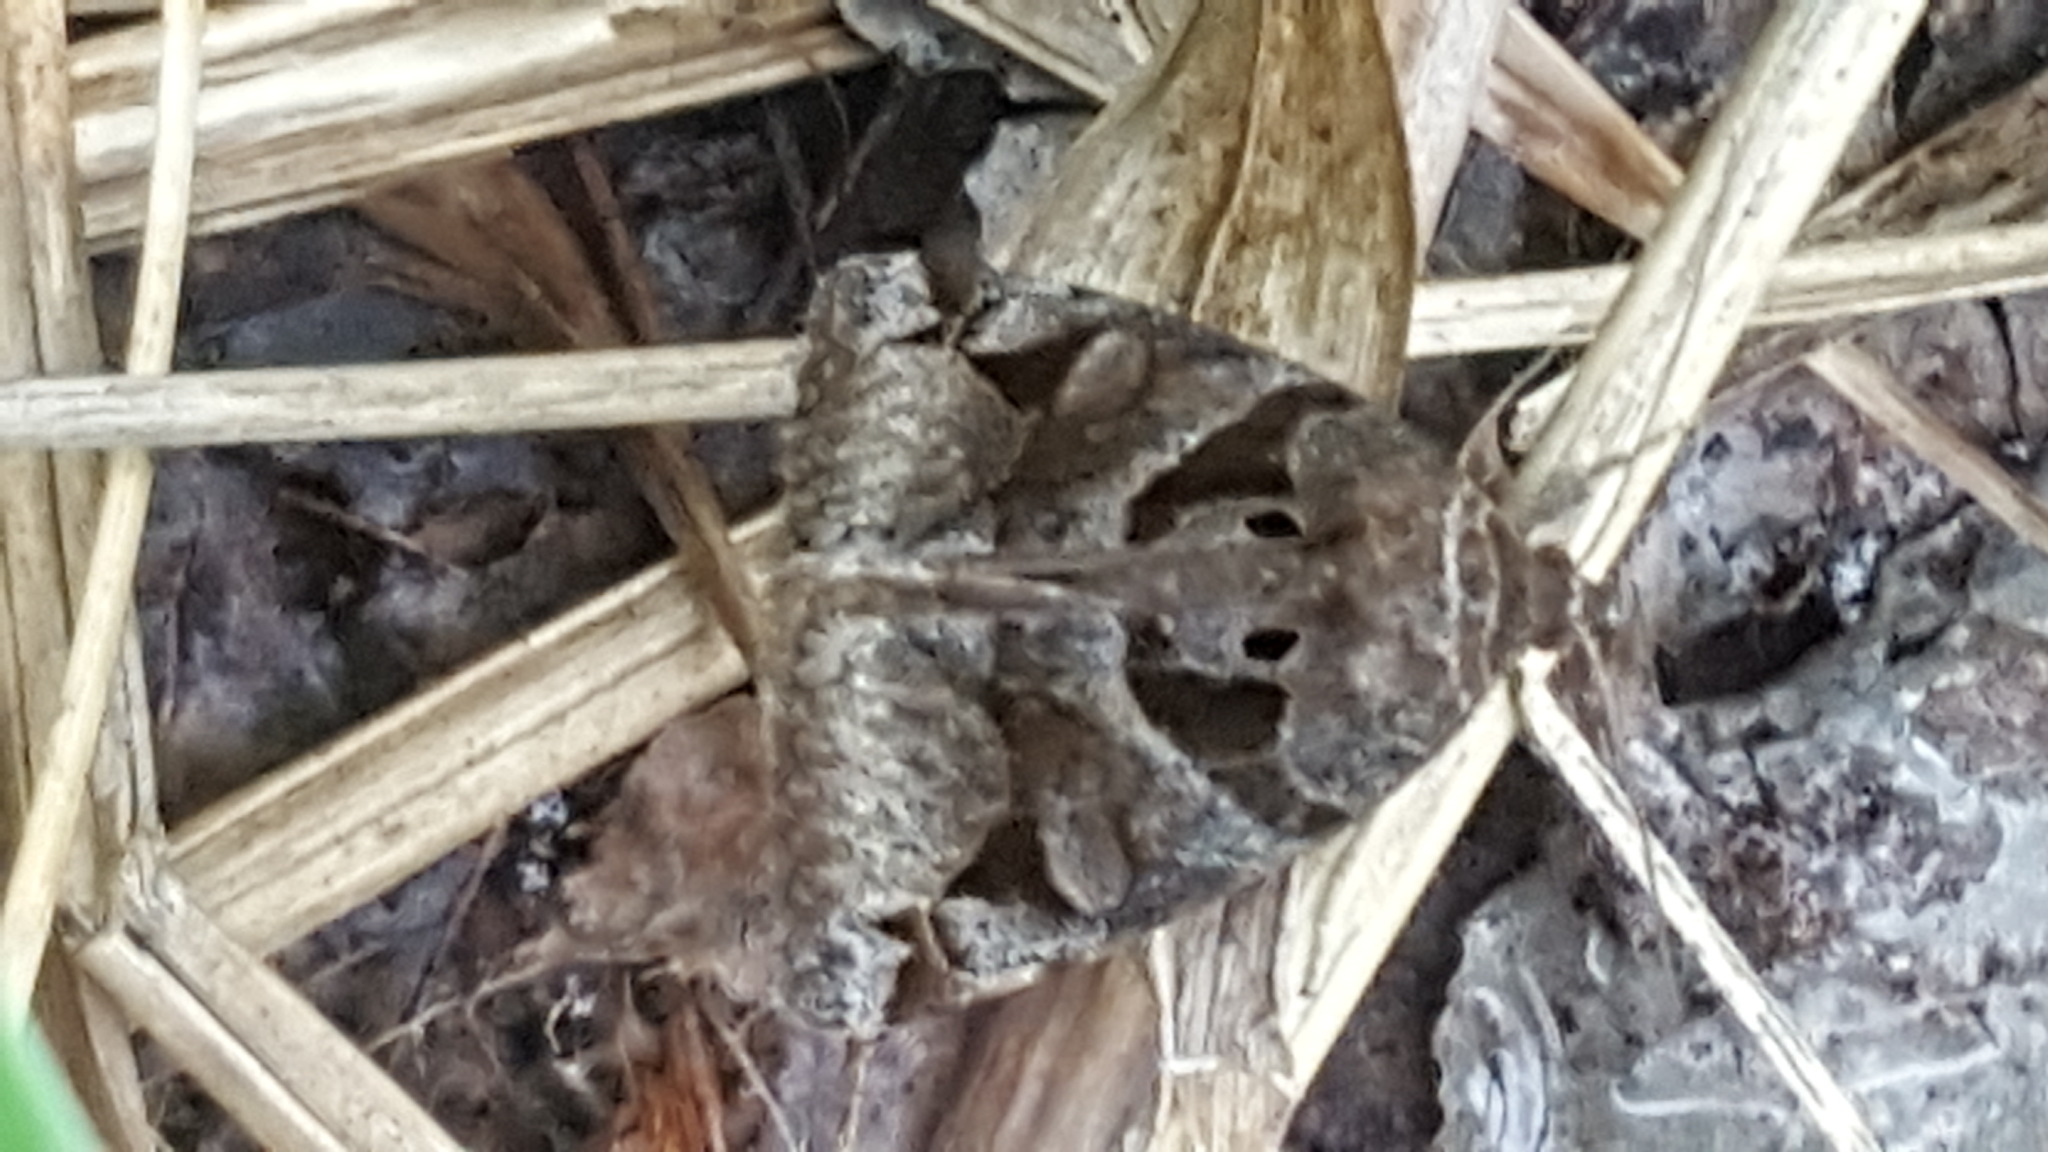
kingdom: Animalia
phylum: Arthropoda
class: Insecta
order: Lepidoptera
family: Erebidae
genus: Euclidia
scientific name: Euclidia cuspidea
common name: Toothed somberwing
